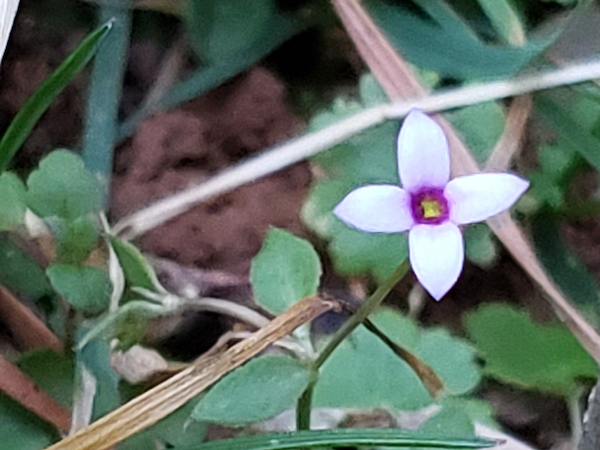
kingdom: Plantae
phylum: Tracheophyta
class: Magnoliopsida
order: Gentianales
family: Rubiaceae
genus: Houstonia
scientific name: Houstonia pusilla
